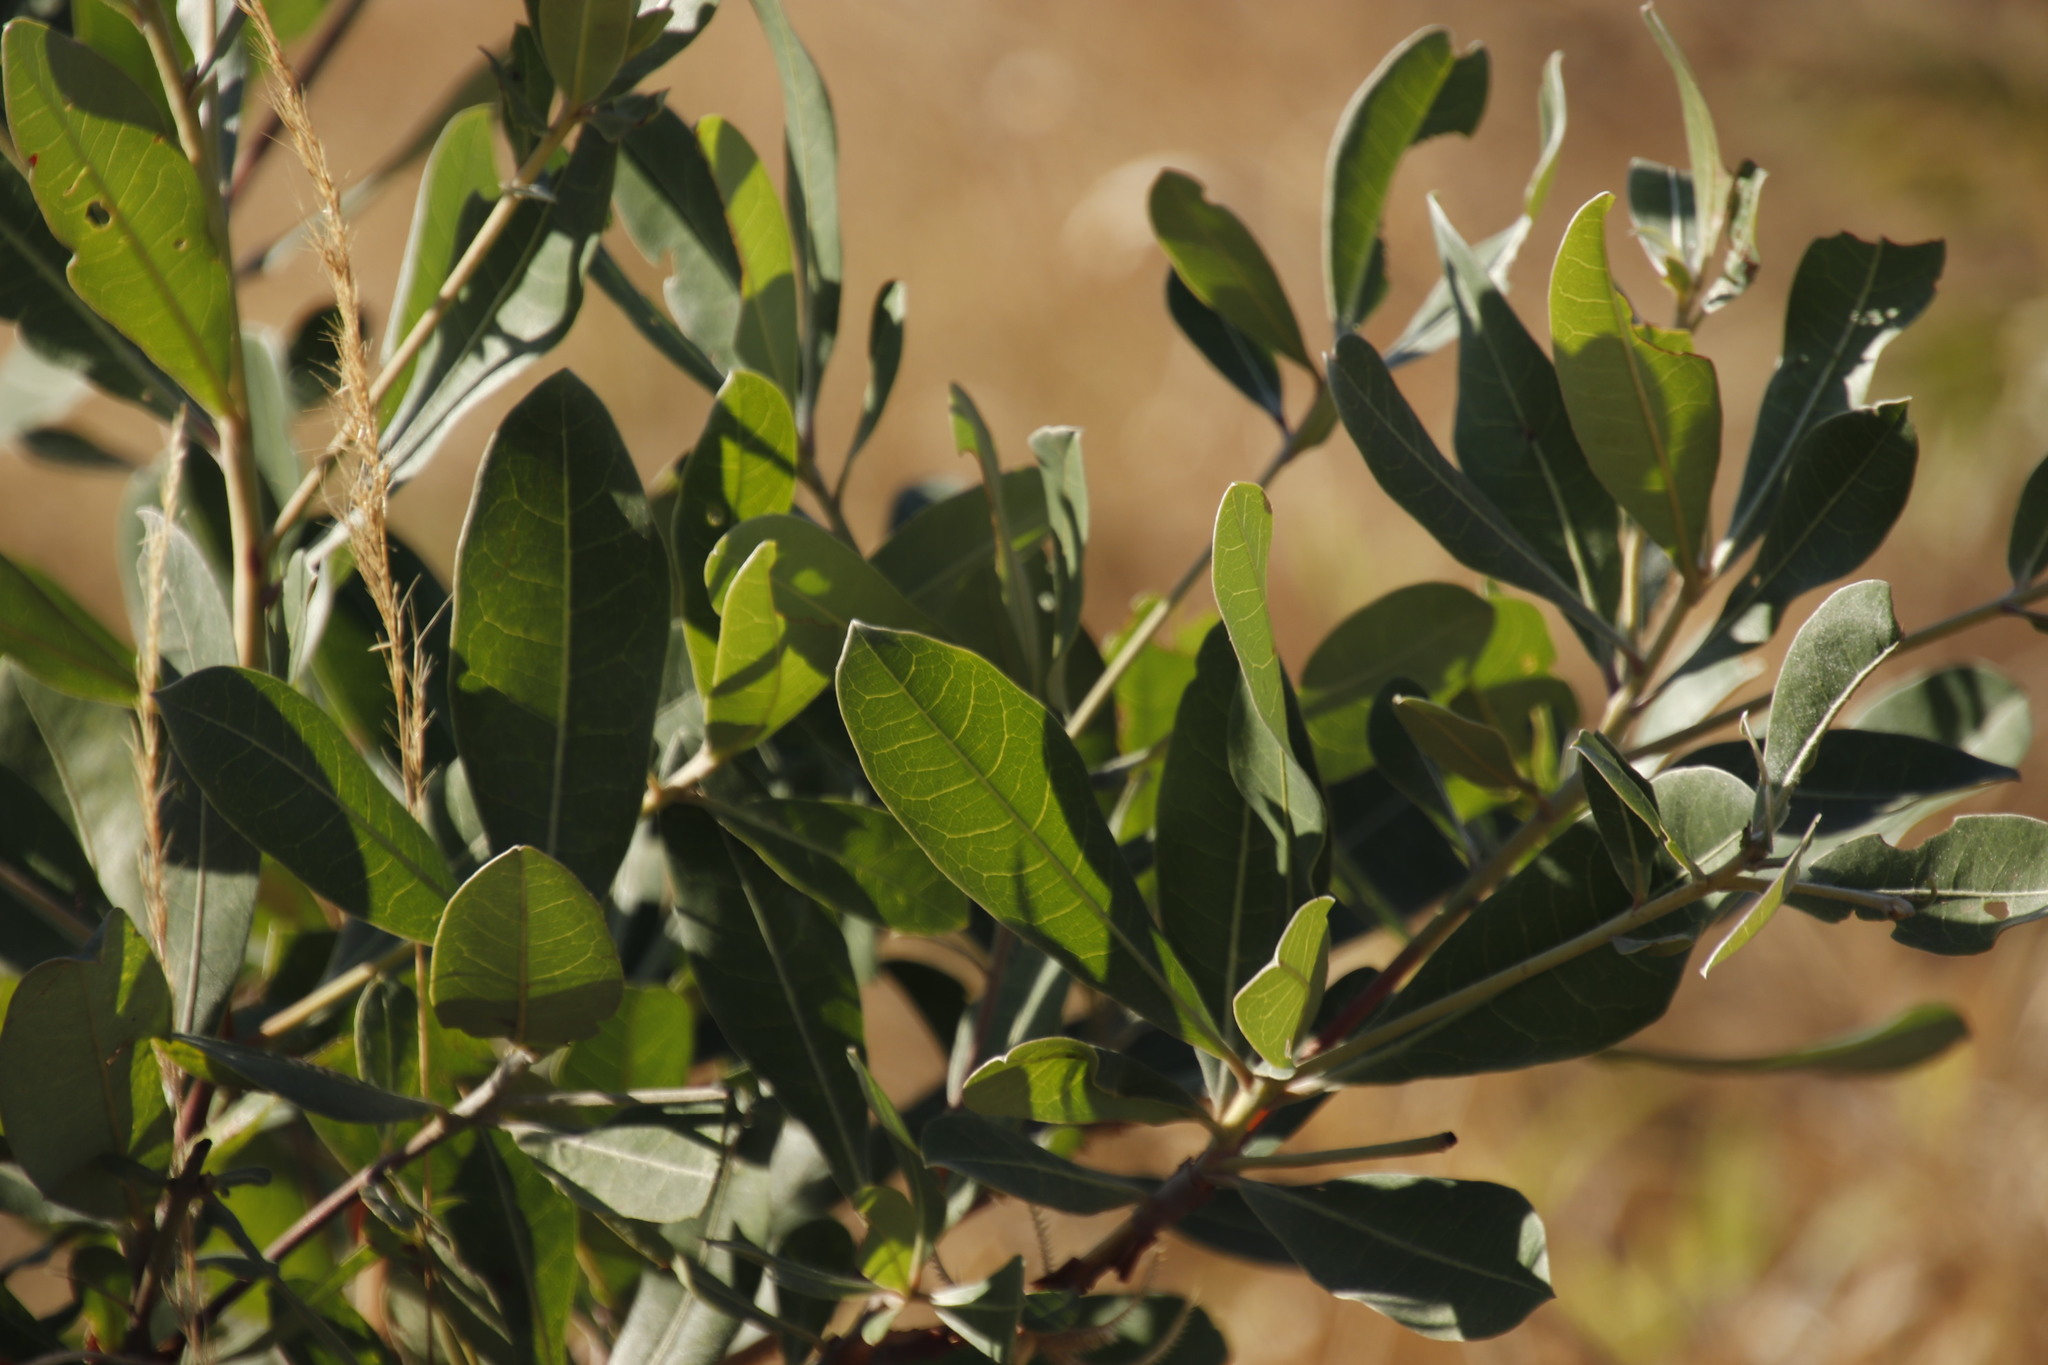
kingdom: Plantae
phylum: Tracheophyta
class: Magnoliopsida
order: Myrtales
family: Combretaceae
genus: Terminalia
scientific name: Terminalia sericea
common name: Clusterleaf
